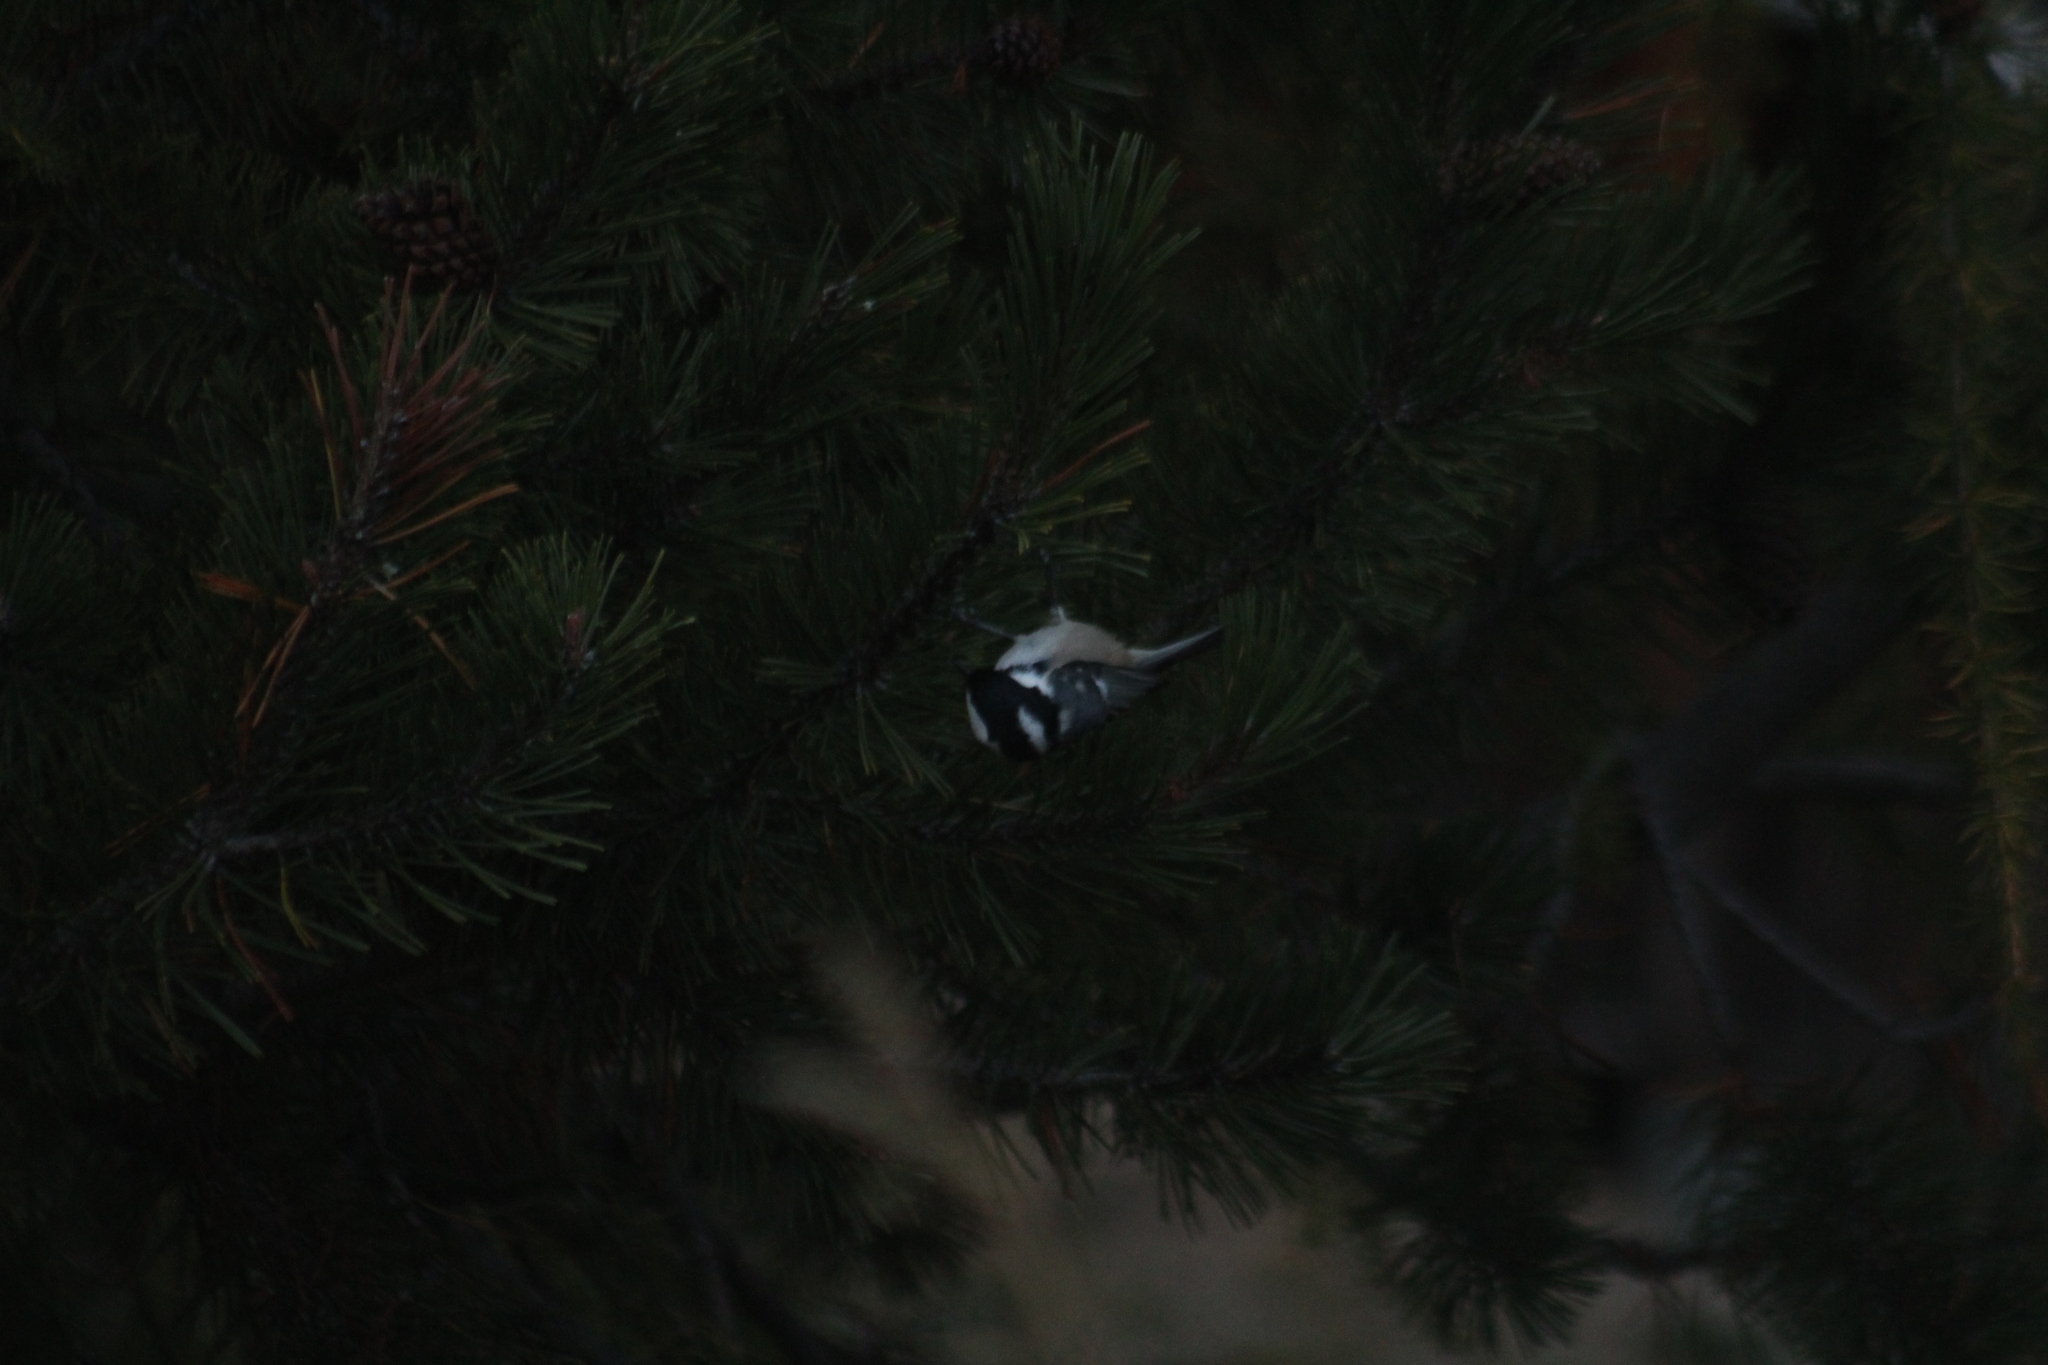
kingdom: Animalia
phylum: Chordata
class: Aves
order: Passeriformes
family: Paridae
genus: Periparus
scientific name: Periparus ater
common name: Coal tit
